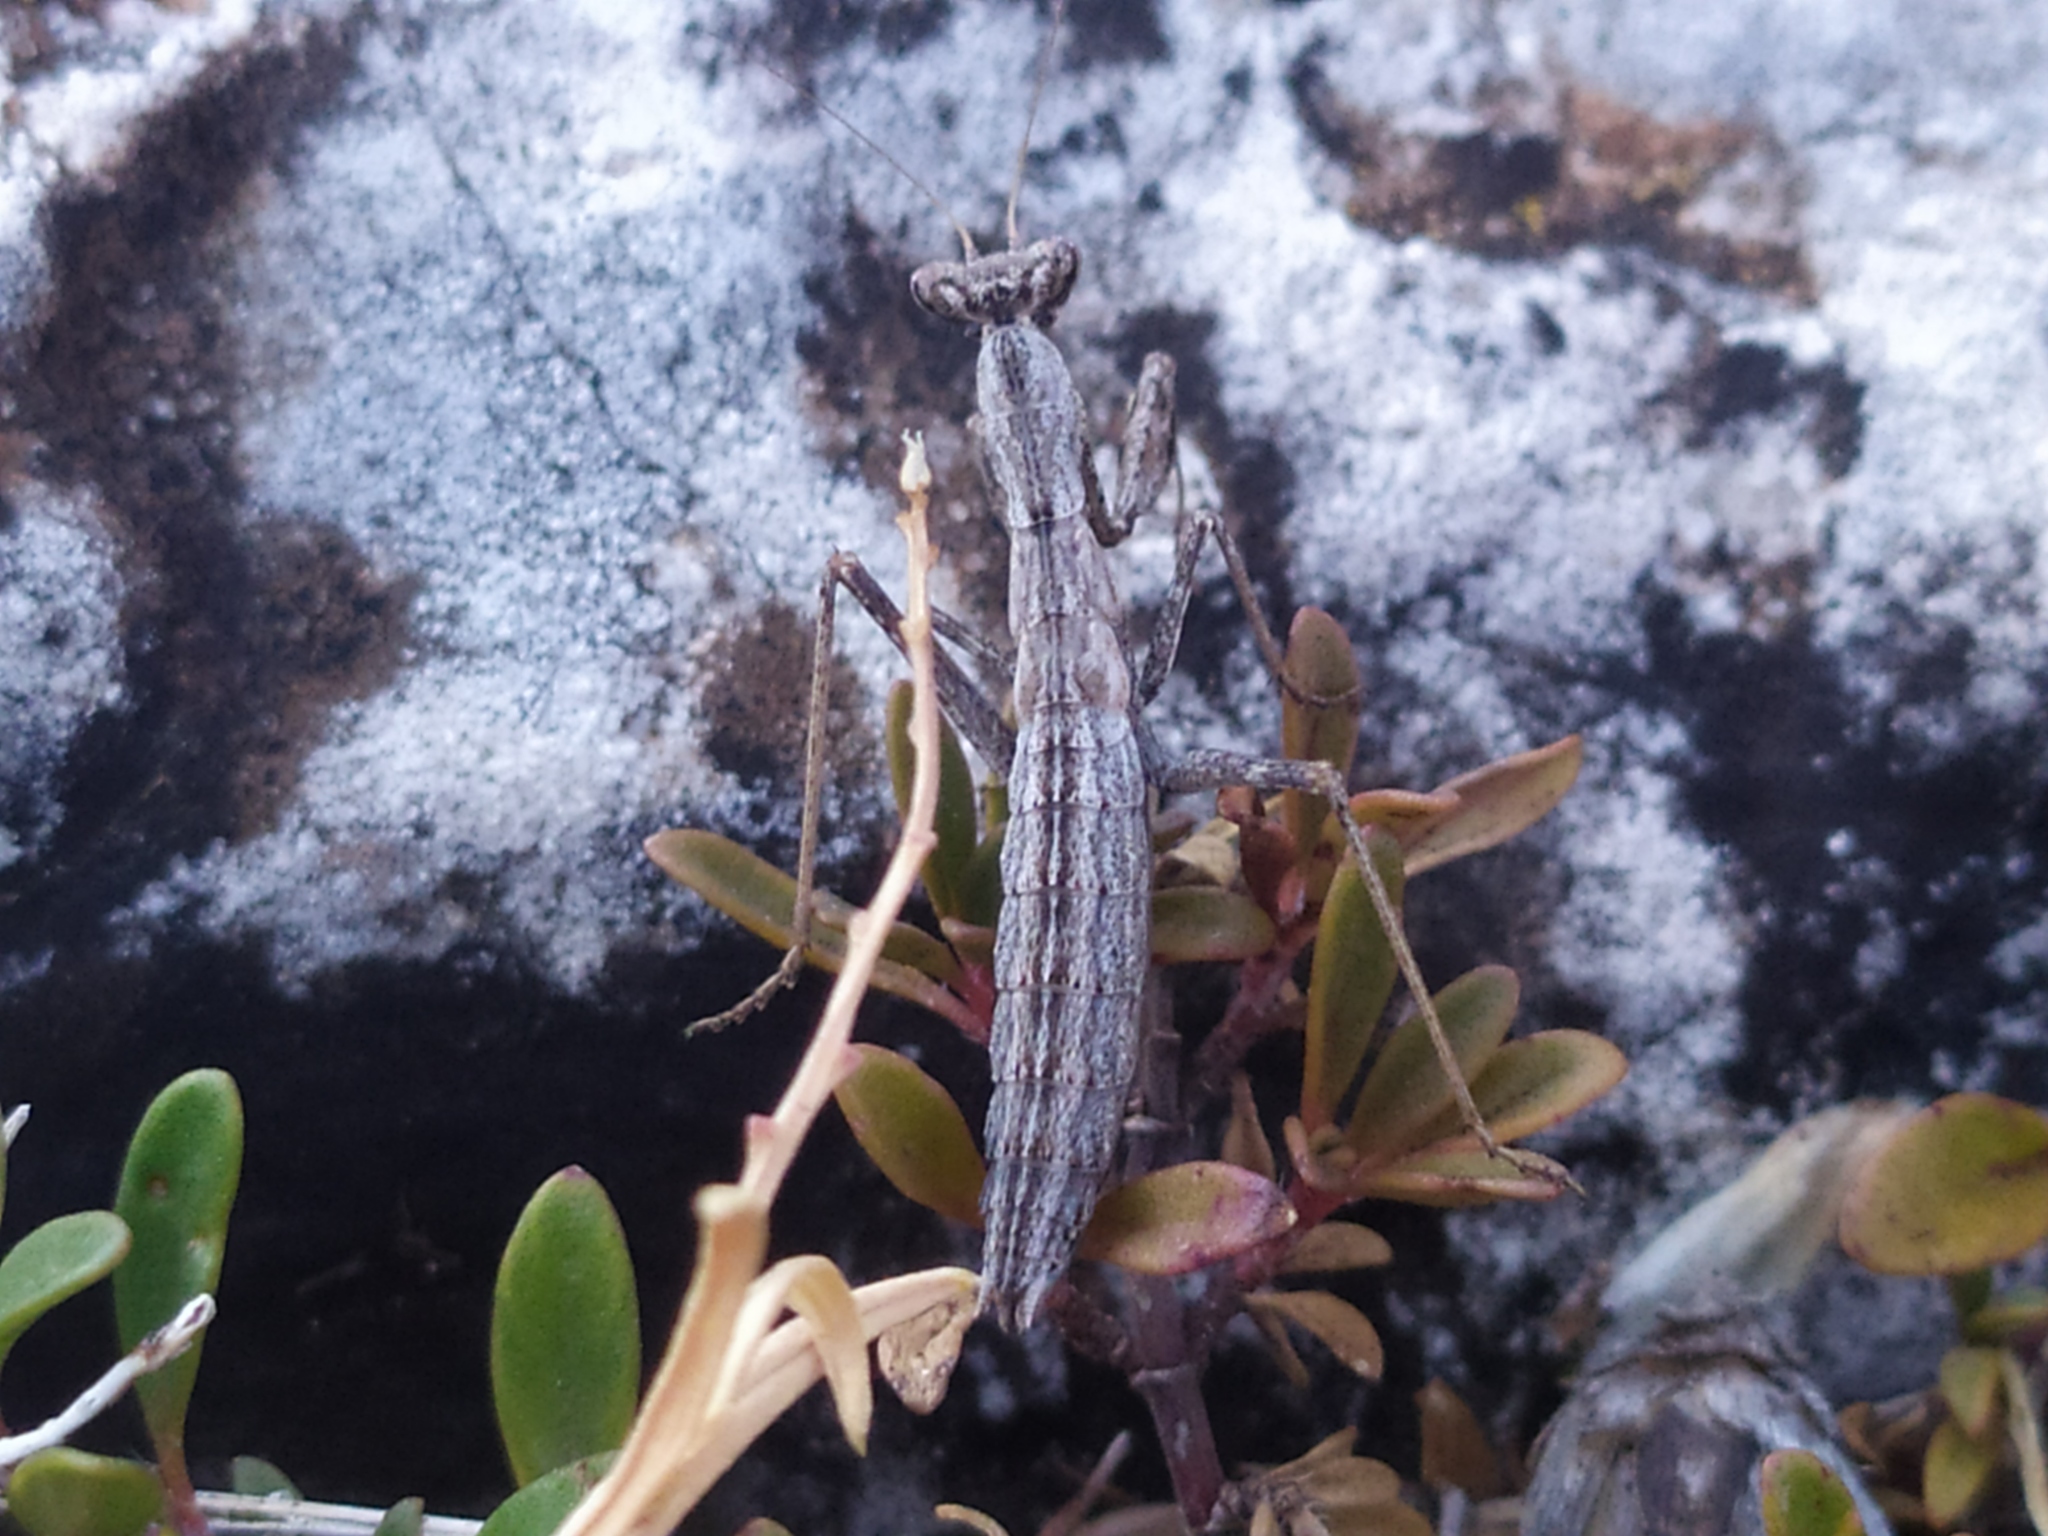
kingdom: Animalia
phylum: Arthropoda
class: Insecta
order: Mantodea
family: Amelidae
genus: Ameles
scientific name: Ameles decolor
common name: Dwarf mantis
